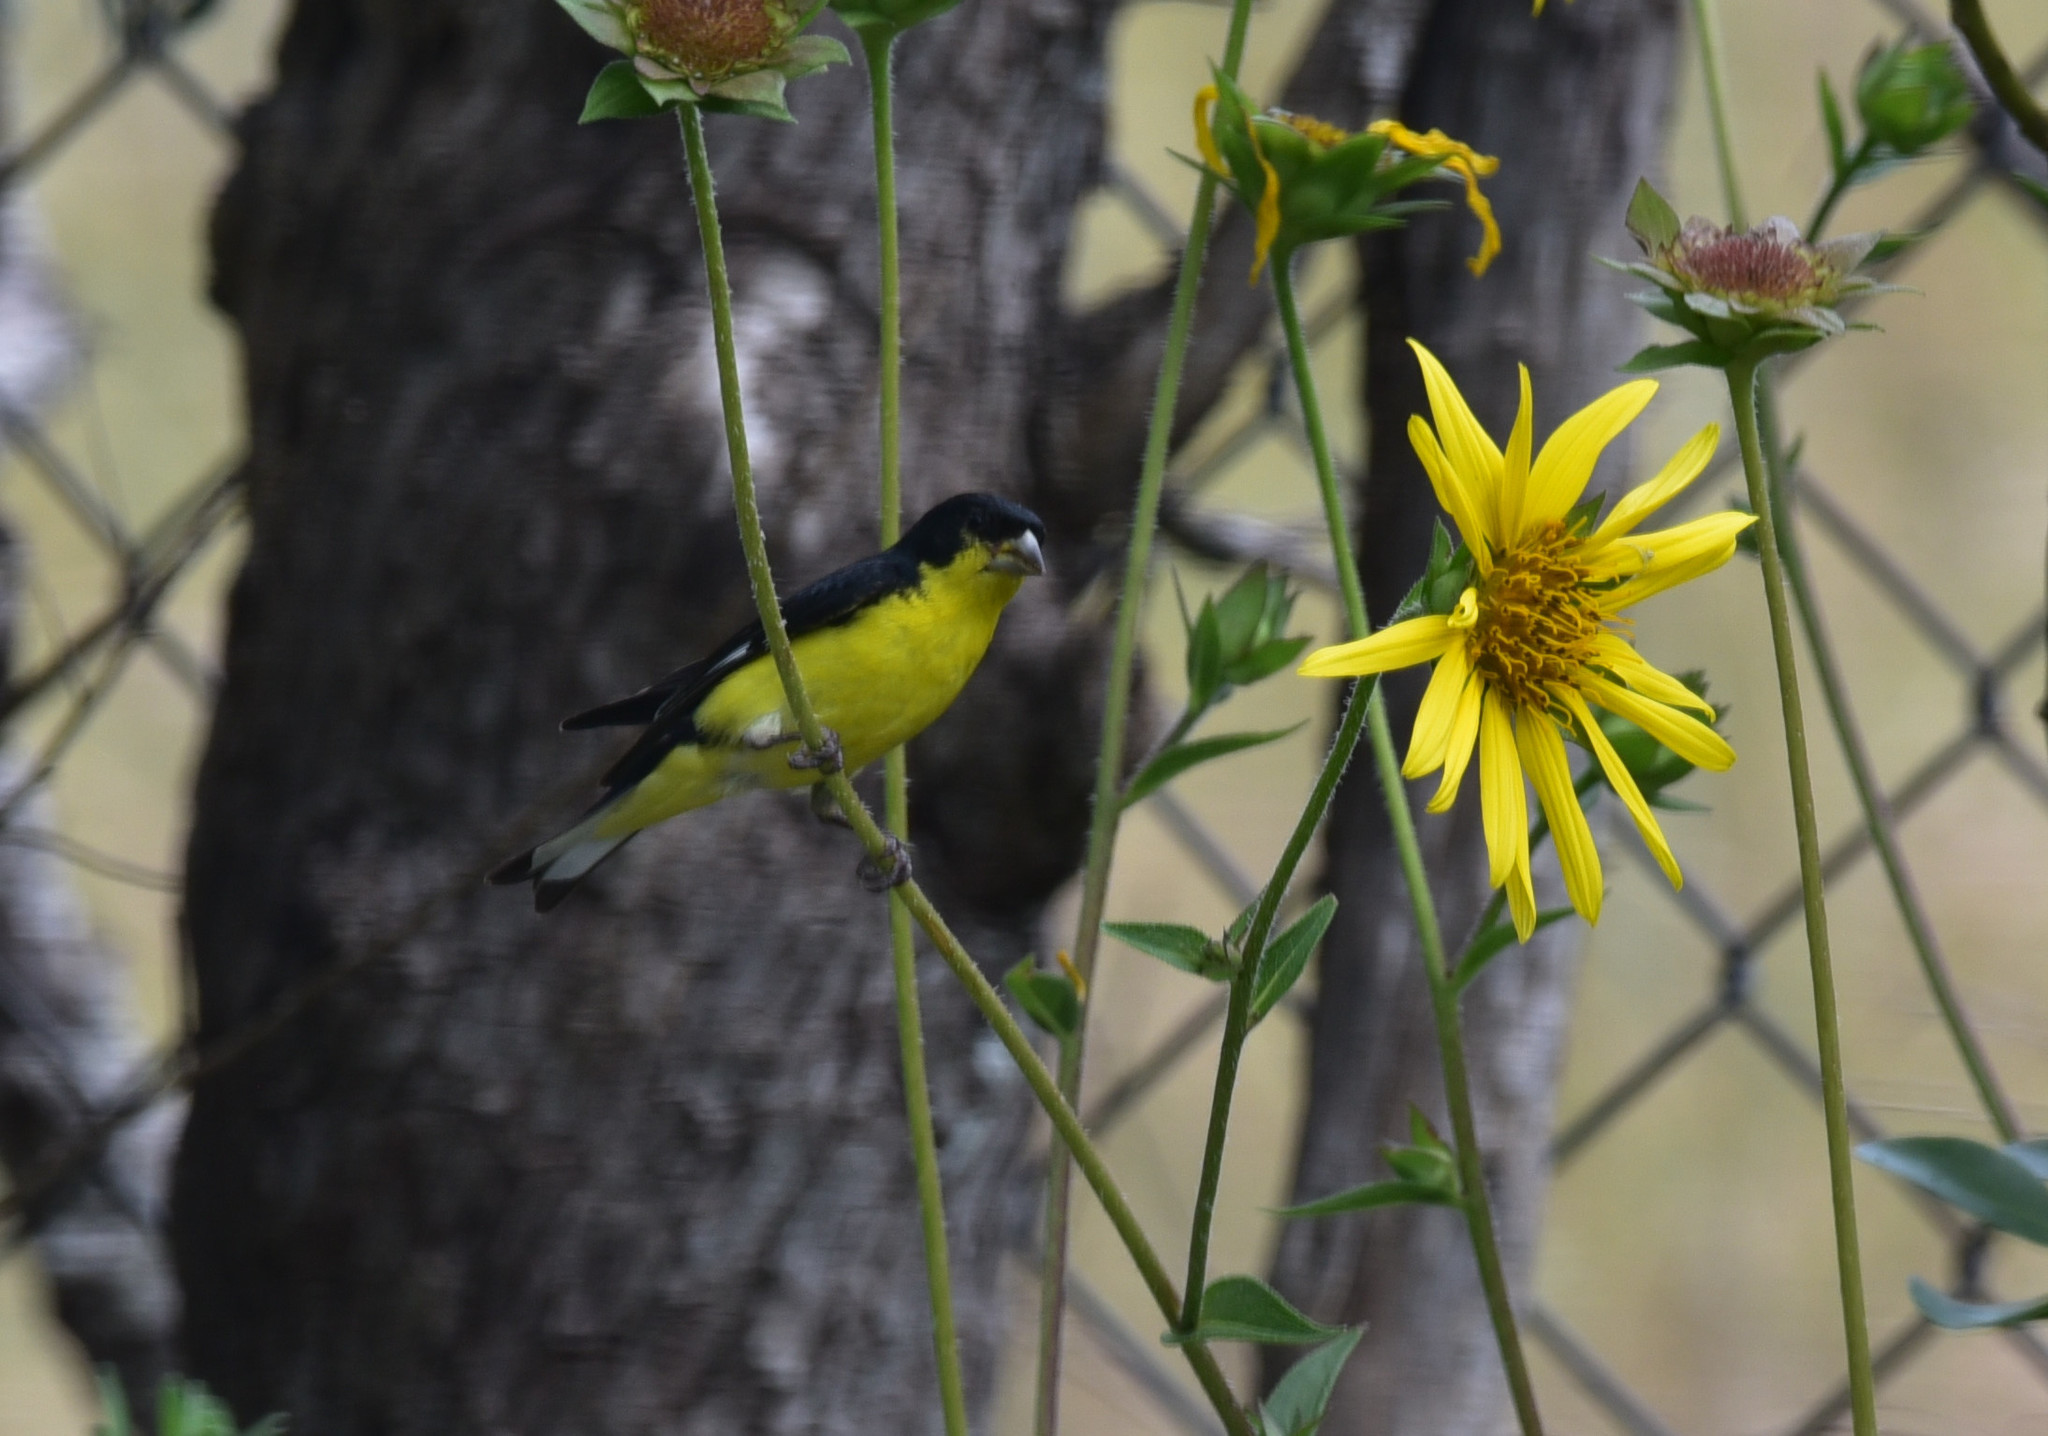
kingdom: Animalia
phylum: Chordata
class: Aves
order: Passeriformes
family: Fringillidae
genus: Spinus
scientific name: Spinus psaltria
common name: Lesser goldfinch
